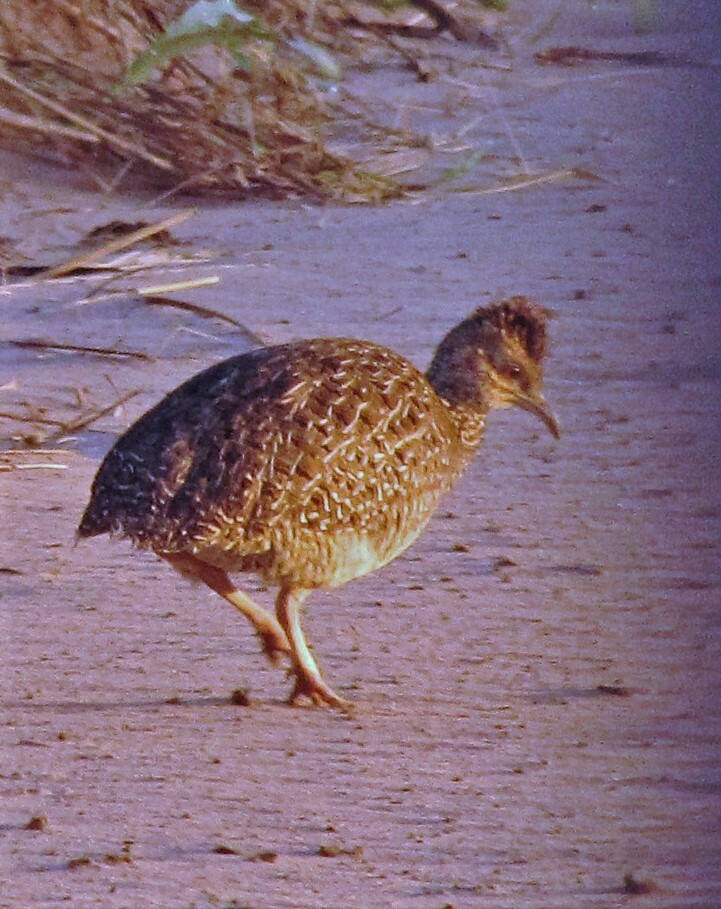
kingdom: Animalia
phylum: Chordata
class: Aves
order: Tinamiformes
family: Tinamidae
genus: Nothoprocta
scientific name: Nothoprocta cinerascens
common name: Brushland tinamou
